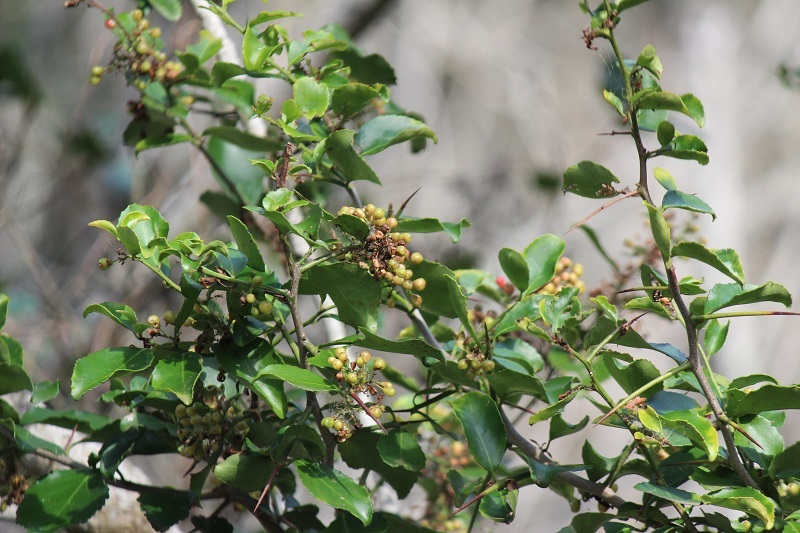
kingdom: Plantae
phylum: Tracheophyta
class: Magnoliopsida
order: Celastrales
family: Celastraceae
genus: Gymnosporia
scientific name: Gymnosporia nemorosa
